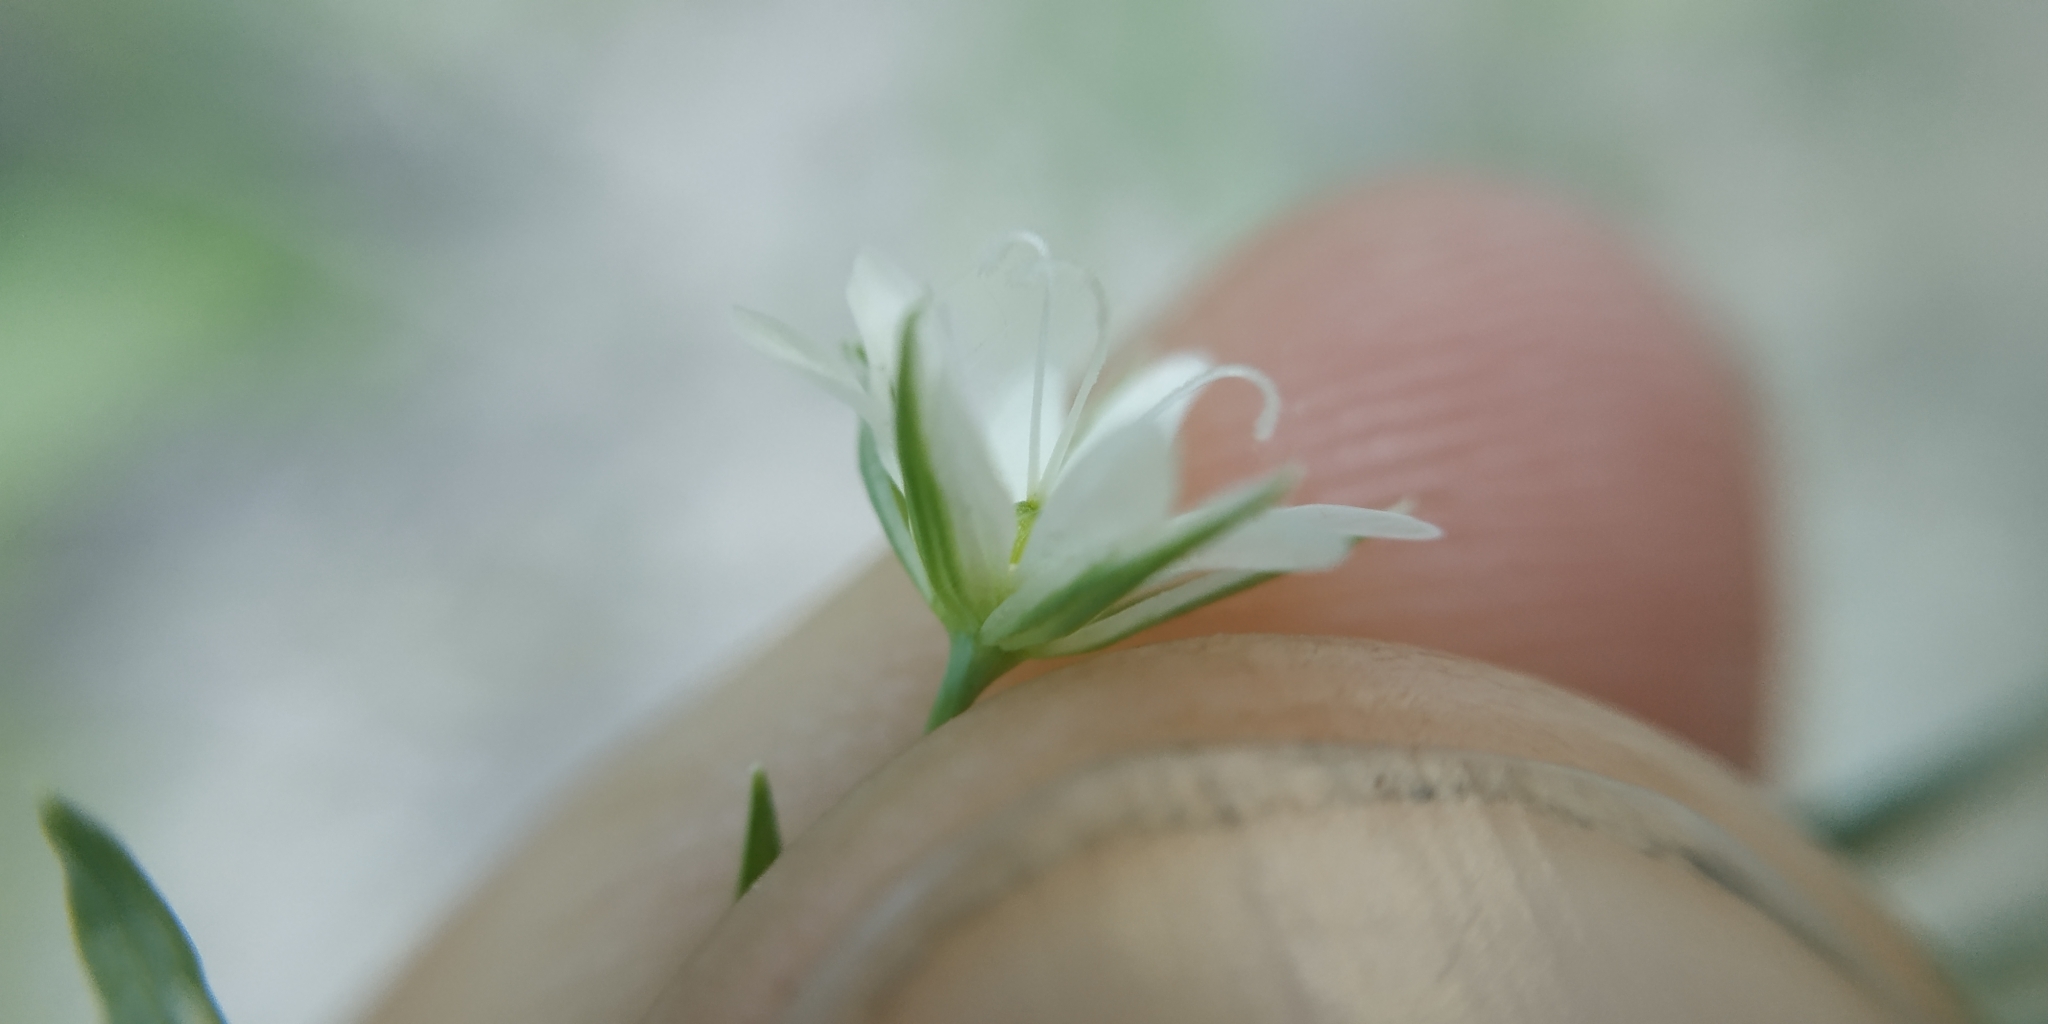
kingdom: Plantae
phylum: Tracheophyta
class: Magnoliopsida
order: Caryophyllales
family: Caryophyllaceae
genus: Stellaria
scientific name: Stellaria palustris
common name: Marsh stitchwort
